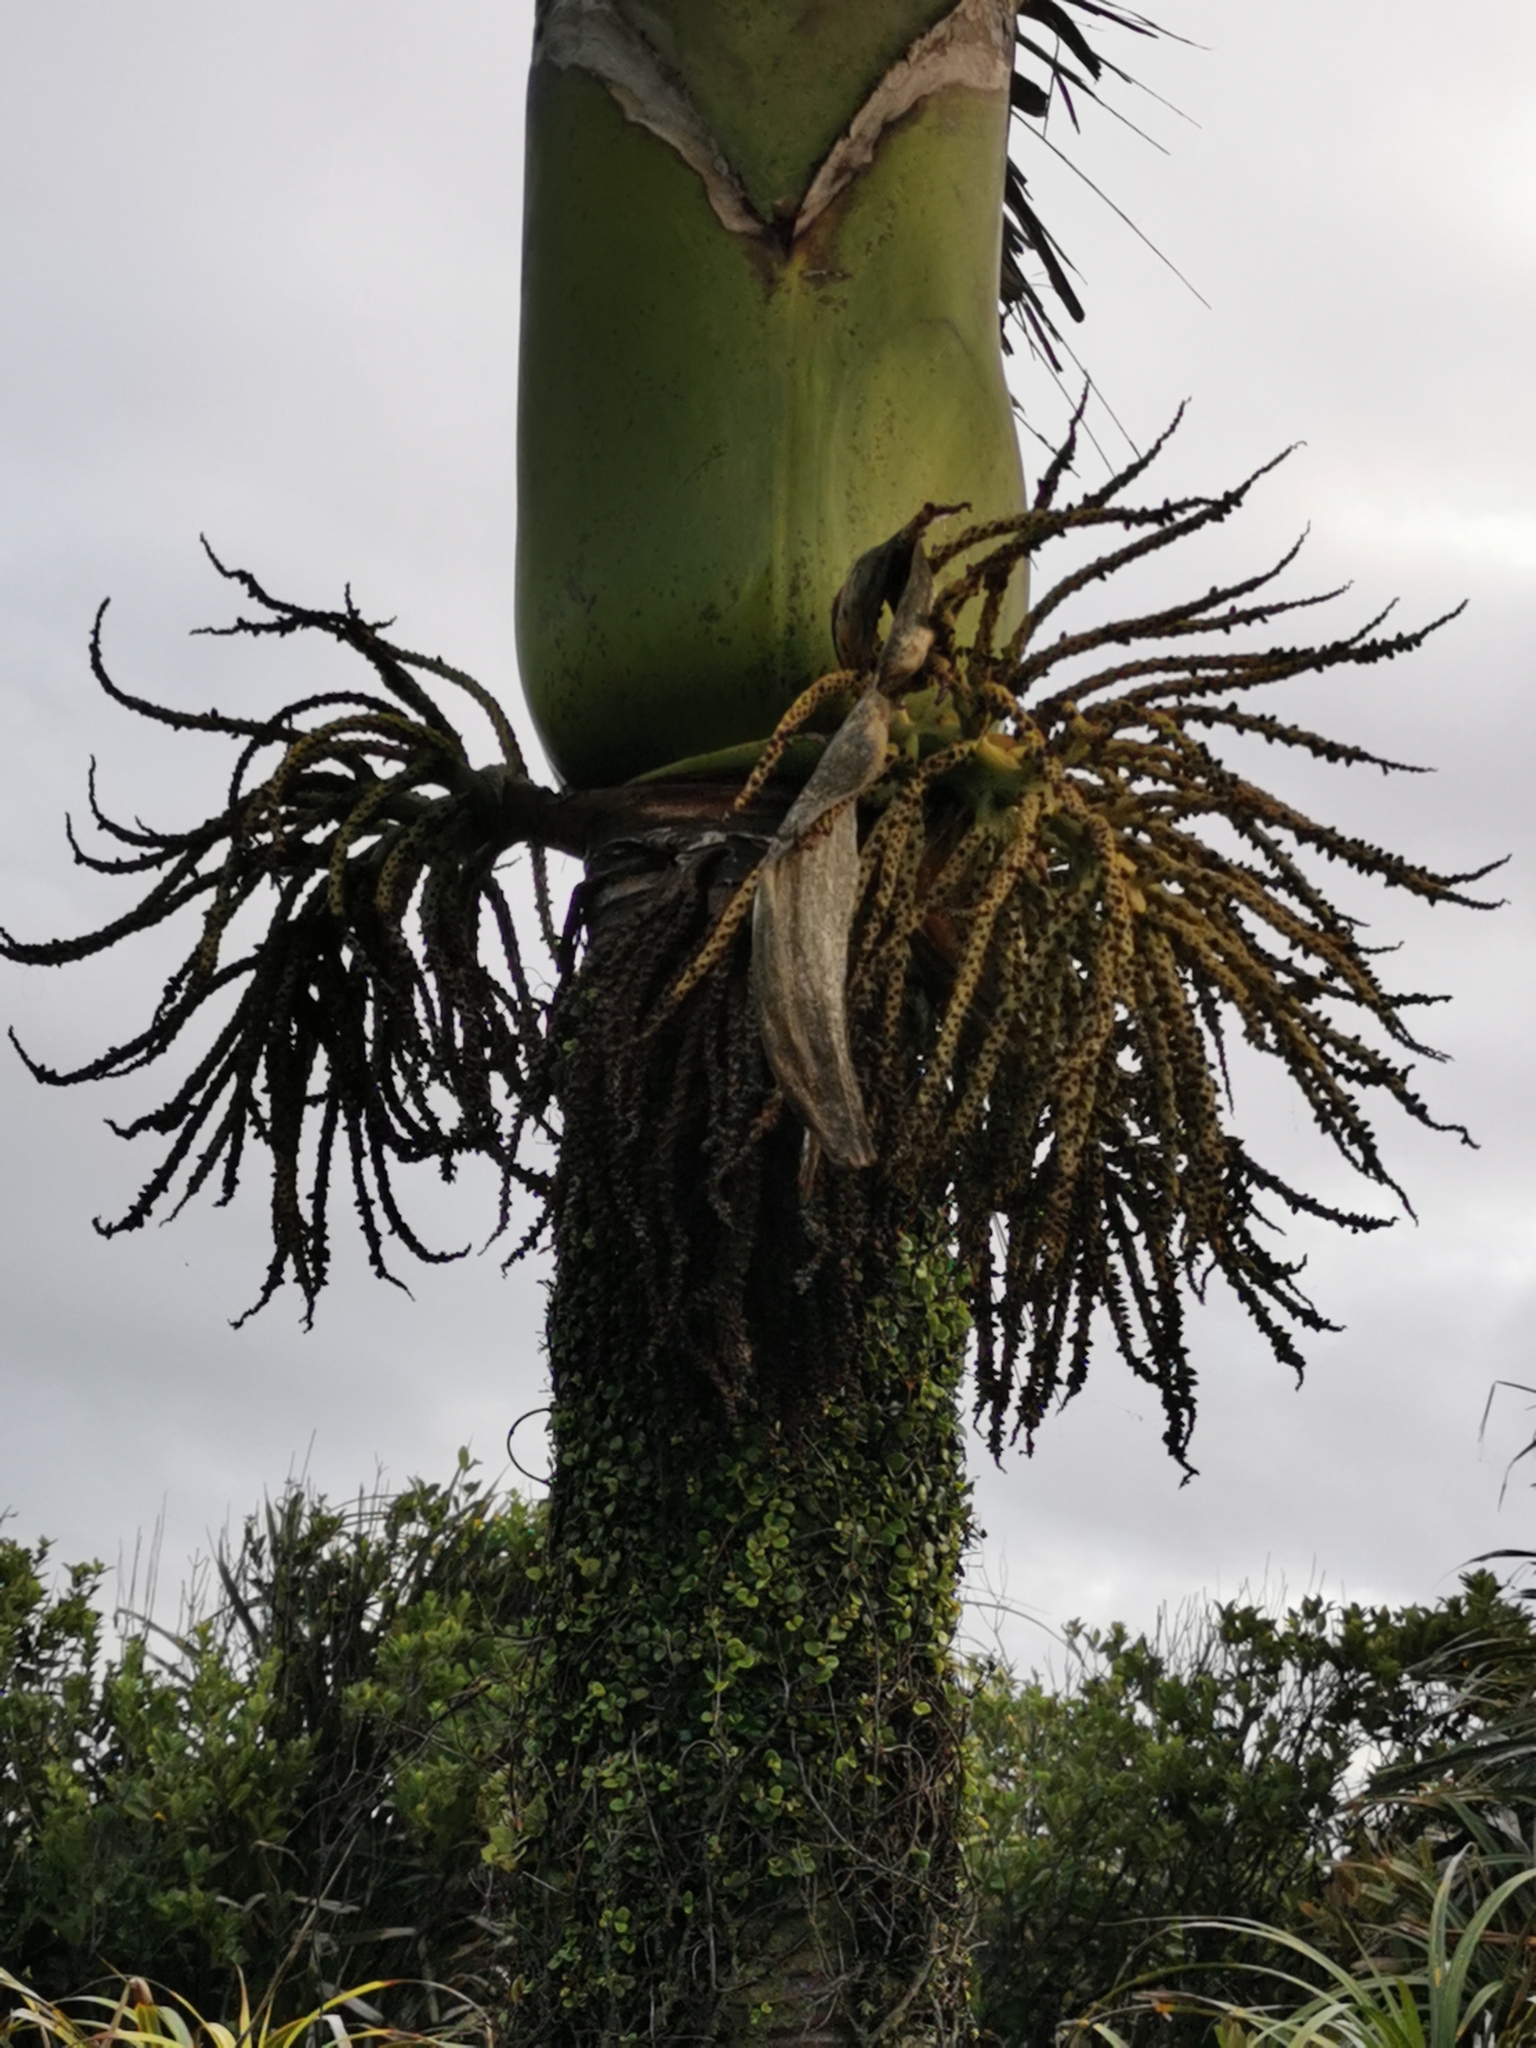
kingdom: Plantae
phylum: Tracheophyta
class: Liliopsida
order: Arecales
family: Arecaceae
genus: Rhopalostylis
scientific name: Rhopalostylis sapida
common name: Feather-duster palm
